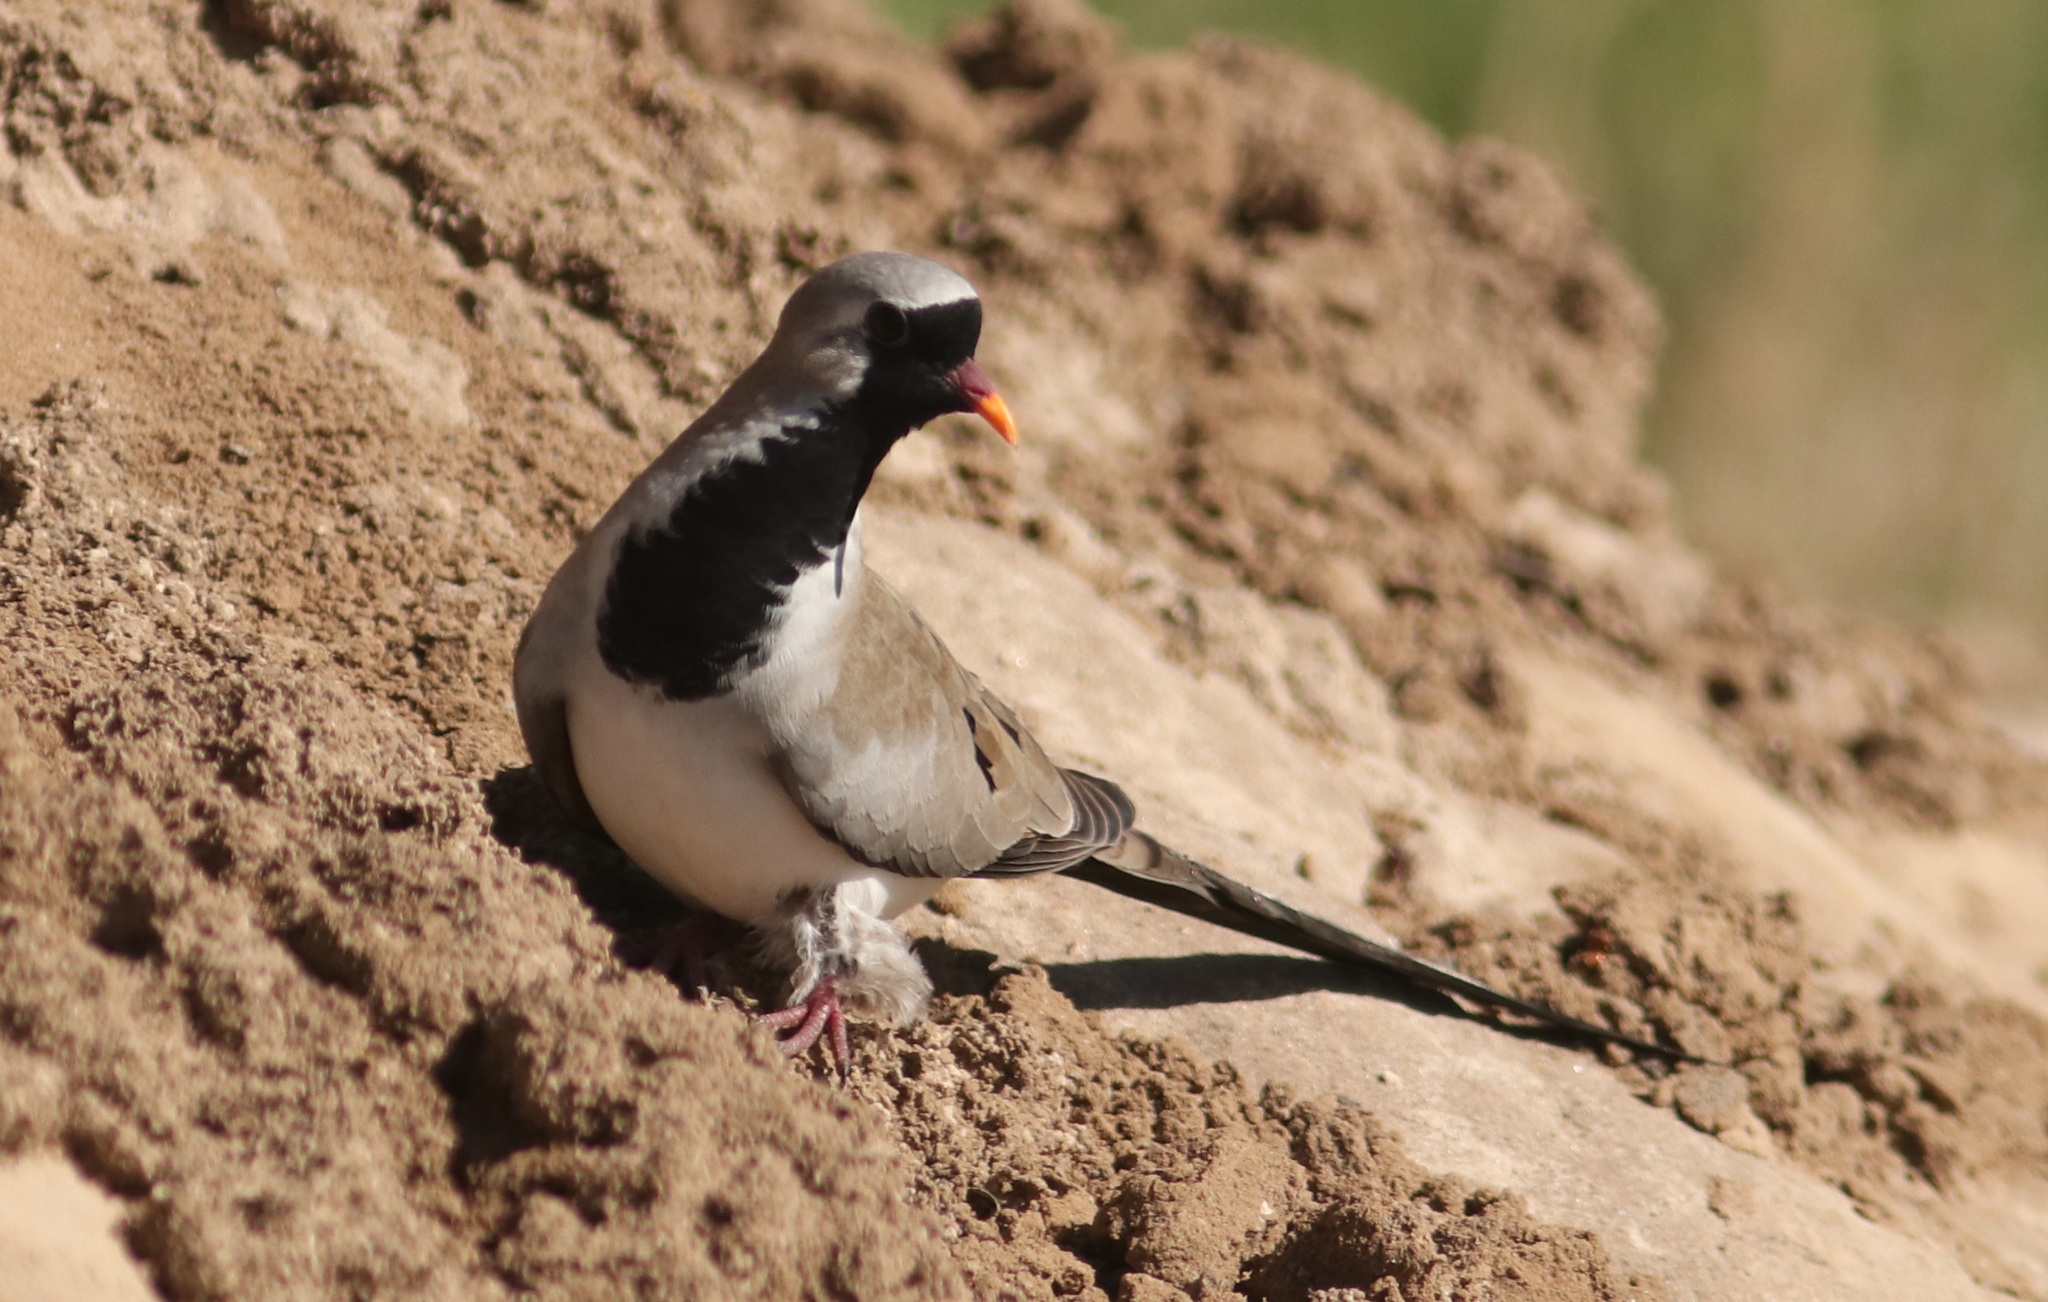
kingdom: Animalia
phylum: Chordata
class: Aves
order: Columbiformes
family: Columbidae
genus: Oena
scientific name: Oena capensis
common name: Namaqua dove
